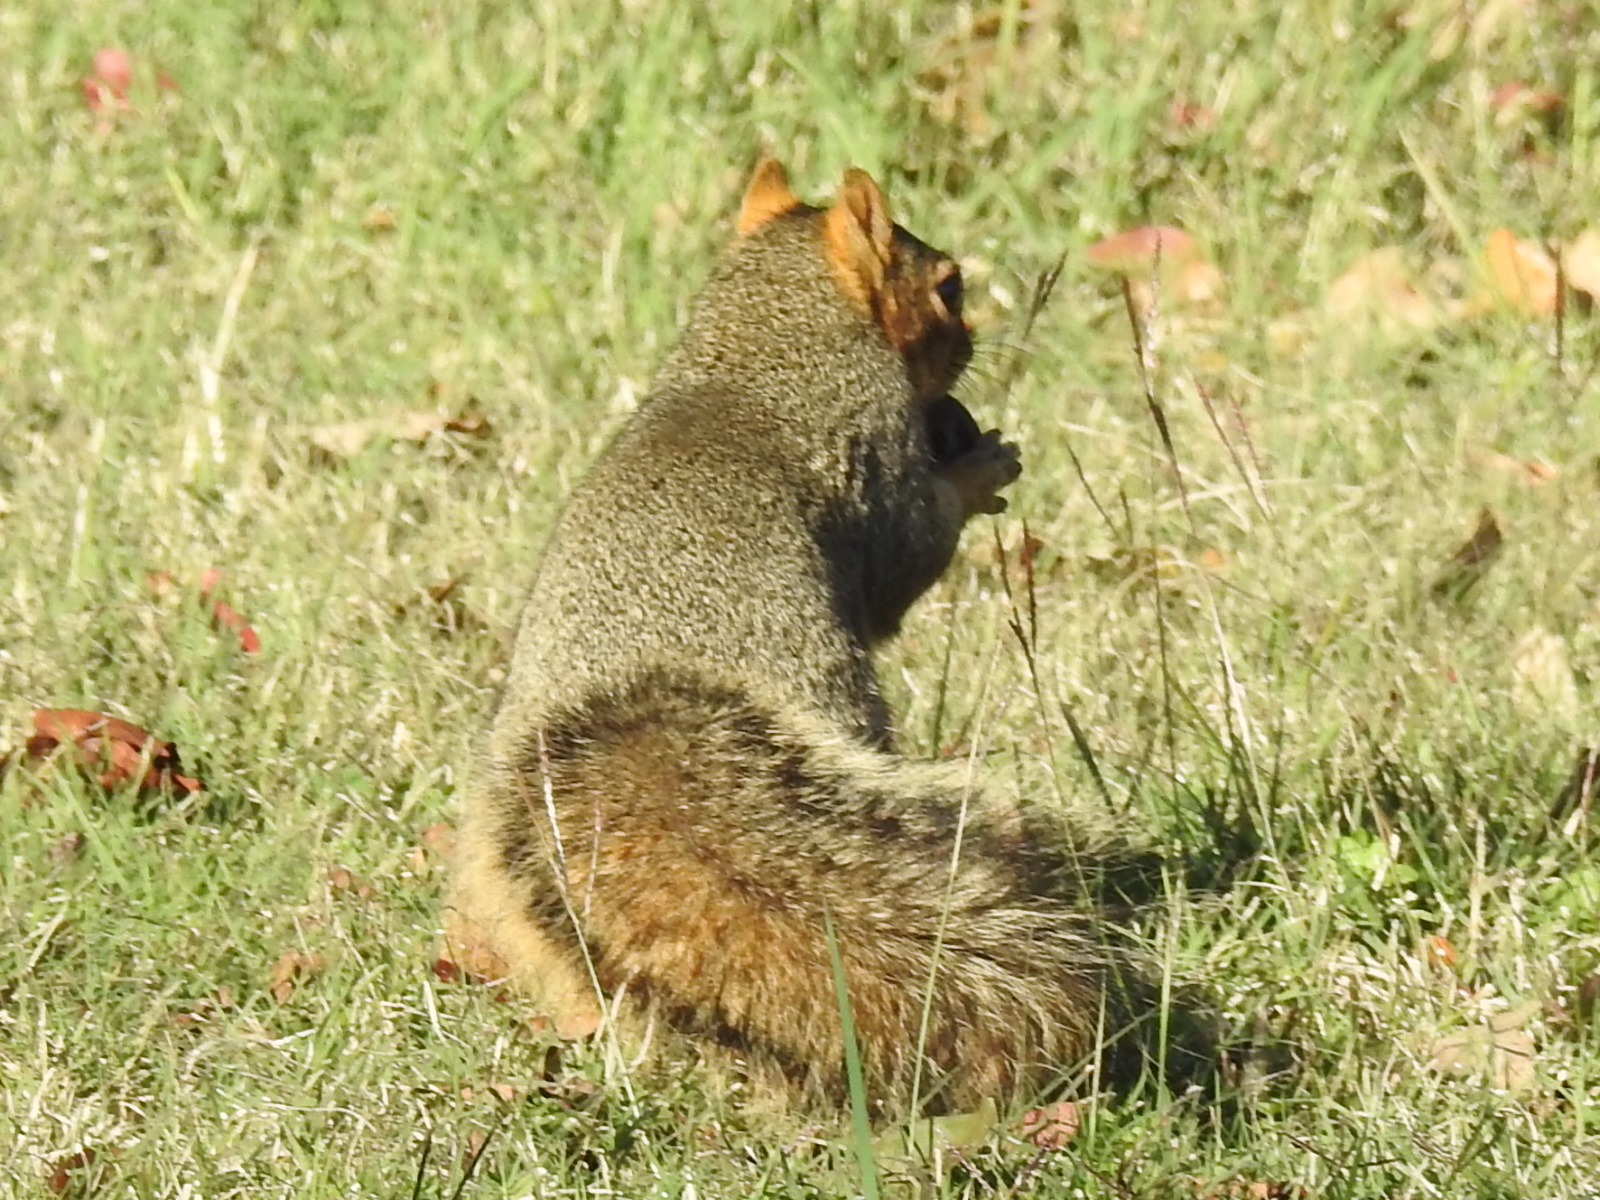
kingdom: Animalia
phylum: Chordata
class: Mammalia
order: Rodentia
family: Sciuridae
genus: Sciurus
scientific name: Sciurus niger
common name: Fox squirrel
